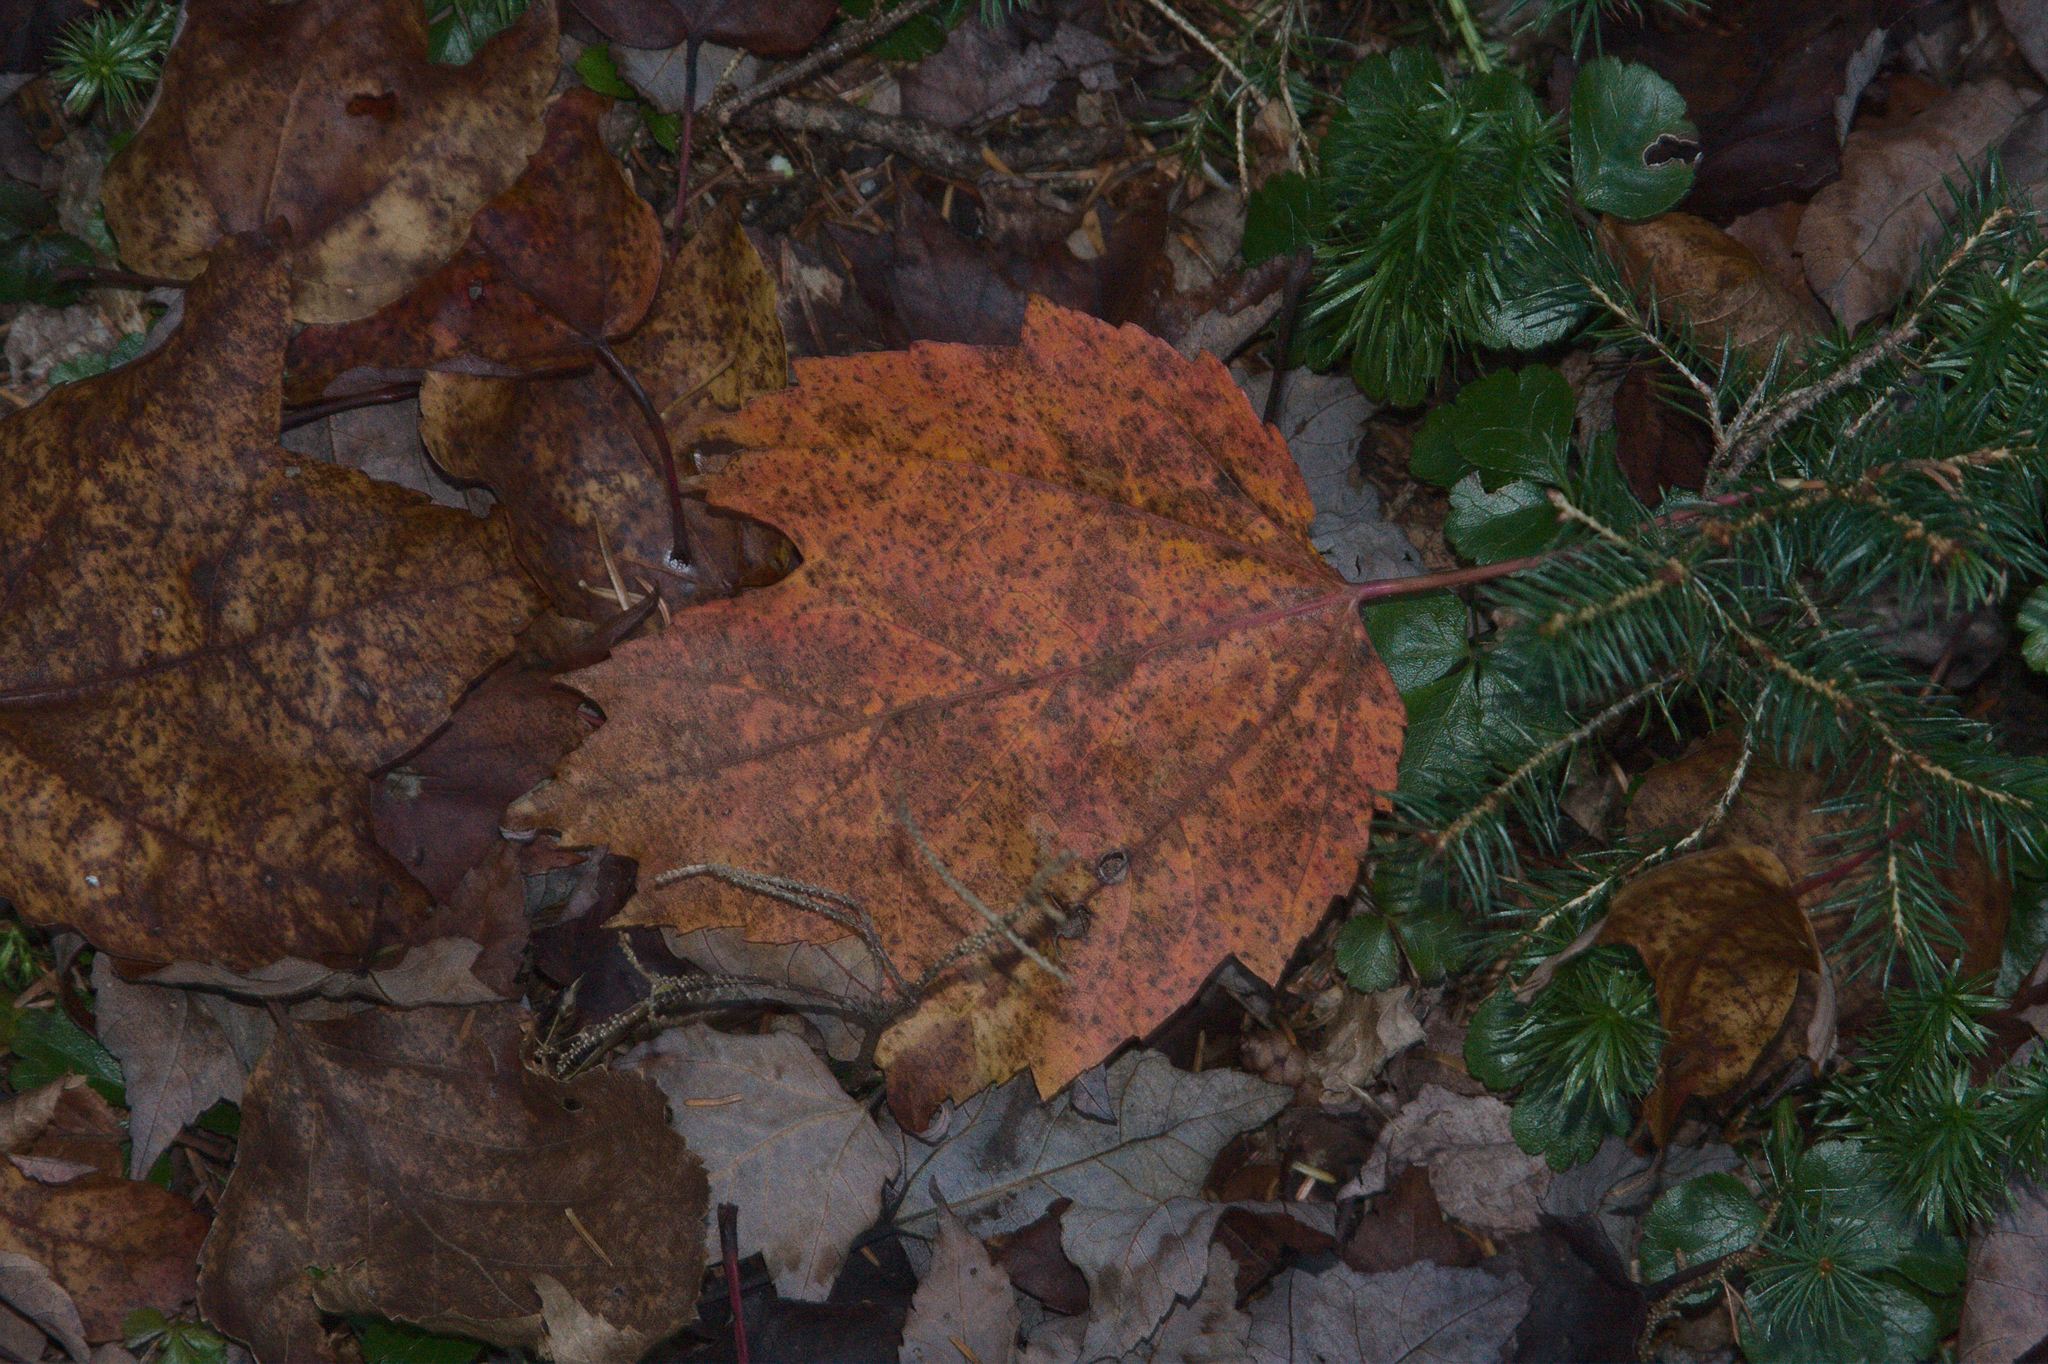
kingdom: Plantae
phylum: Tracheophyta
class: Magnoliopsida
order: Sapindales
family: Sapindaceae
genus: Acer
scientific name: Acer rubrum
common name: Red maple
